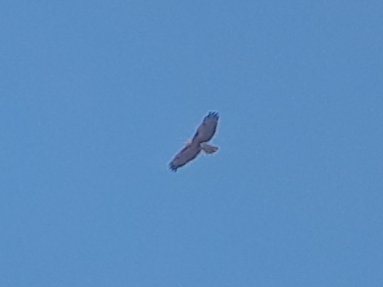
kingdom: Animalia
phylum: Chordata
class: Aves
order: Accipitriformes
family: Accipitridae
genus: Buteo
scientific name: Buteo jamaicensis
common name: Red-tailed hawk
